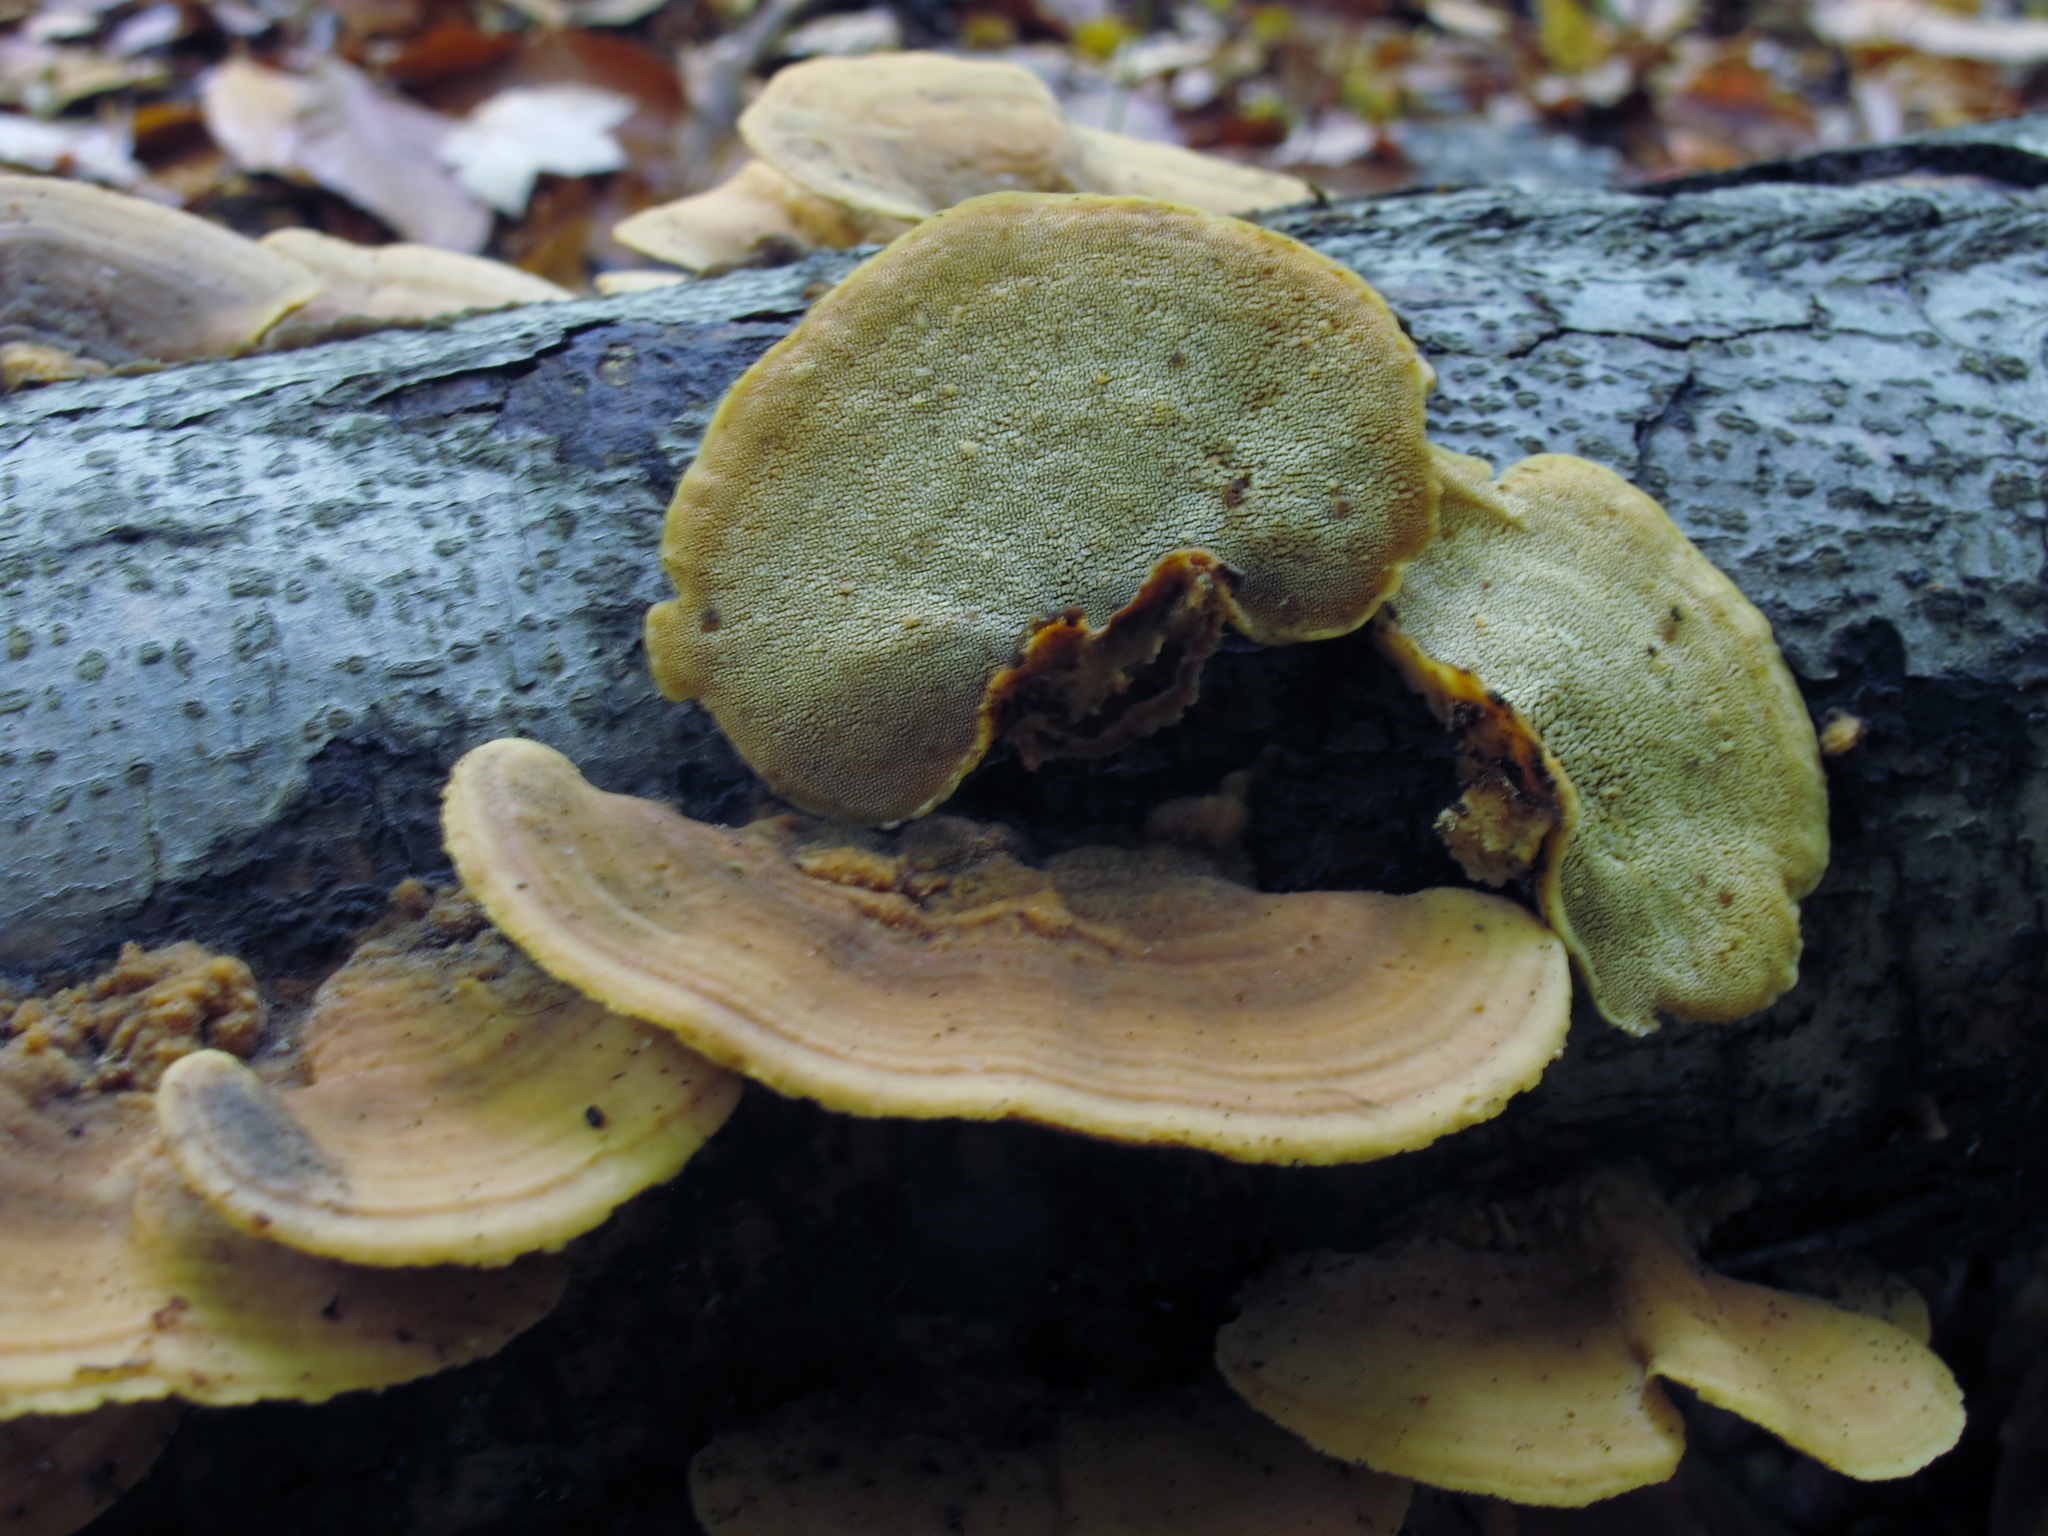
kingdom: Fungi
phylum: Basidiomycota
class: Agaricomycetes
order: Polyporales
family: Steccherinaceae
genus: Steccherinum
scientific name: Steccherinum rawakense
